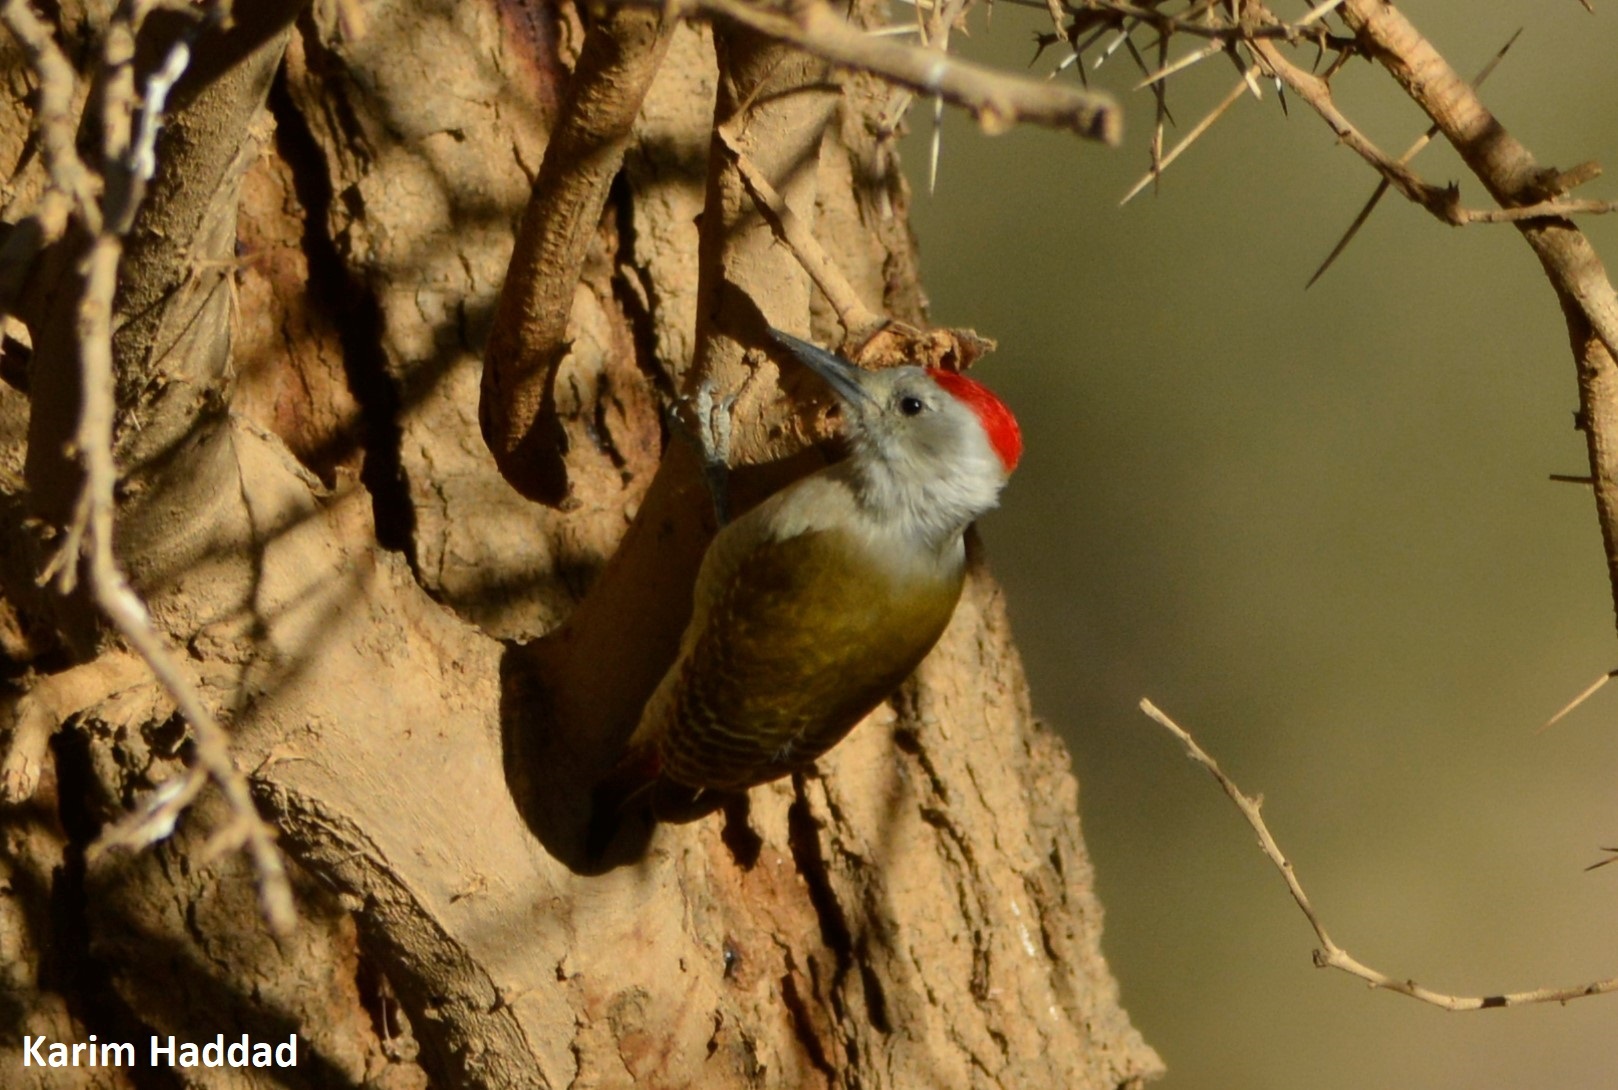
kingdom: Animalia
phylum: Chordata
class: Aves
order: Piciformes
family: Picidae
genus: Dendropicos
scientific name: Dendropicos goertae
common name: African grey woodpecker
